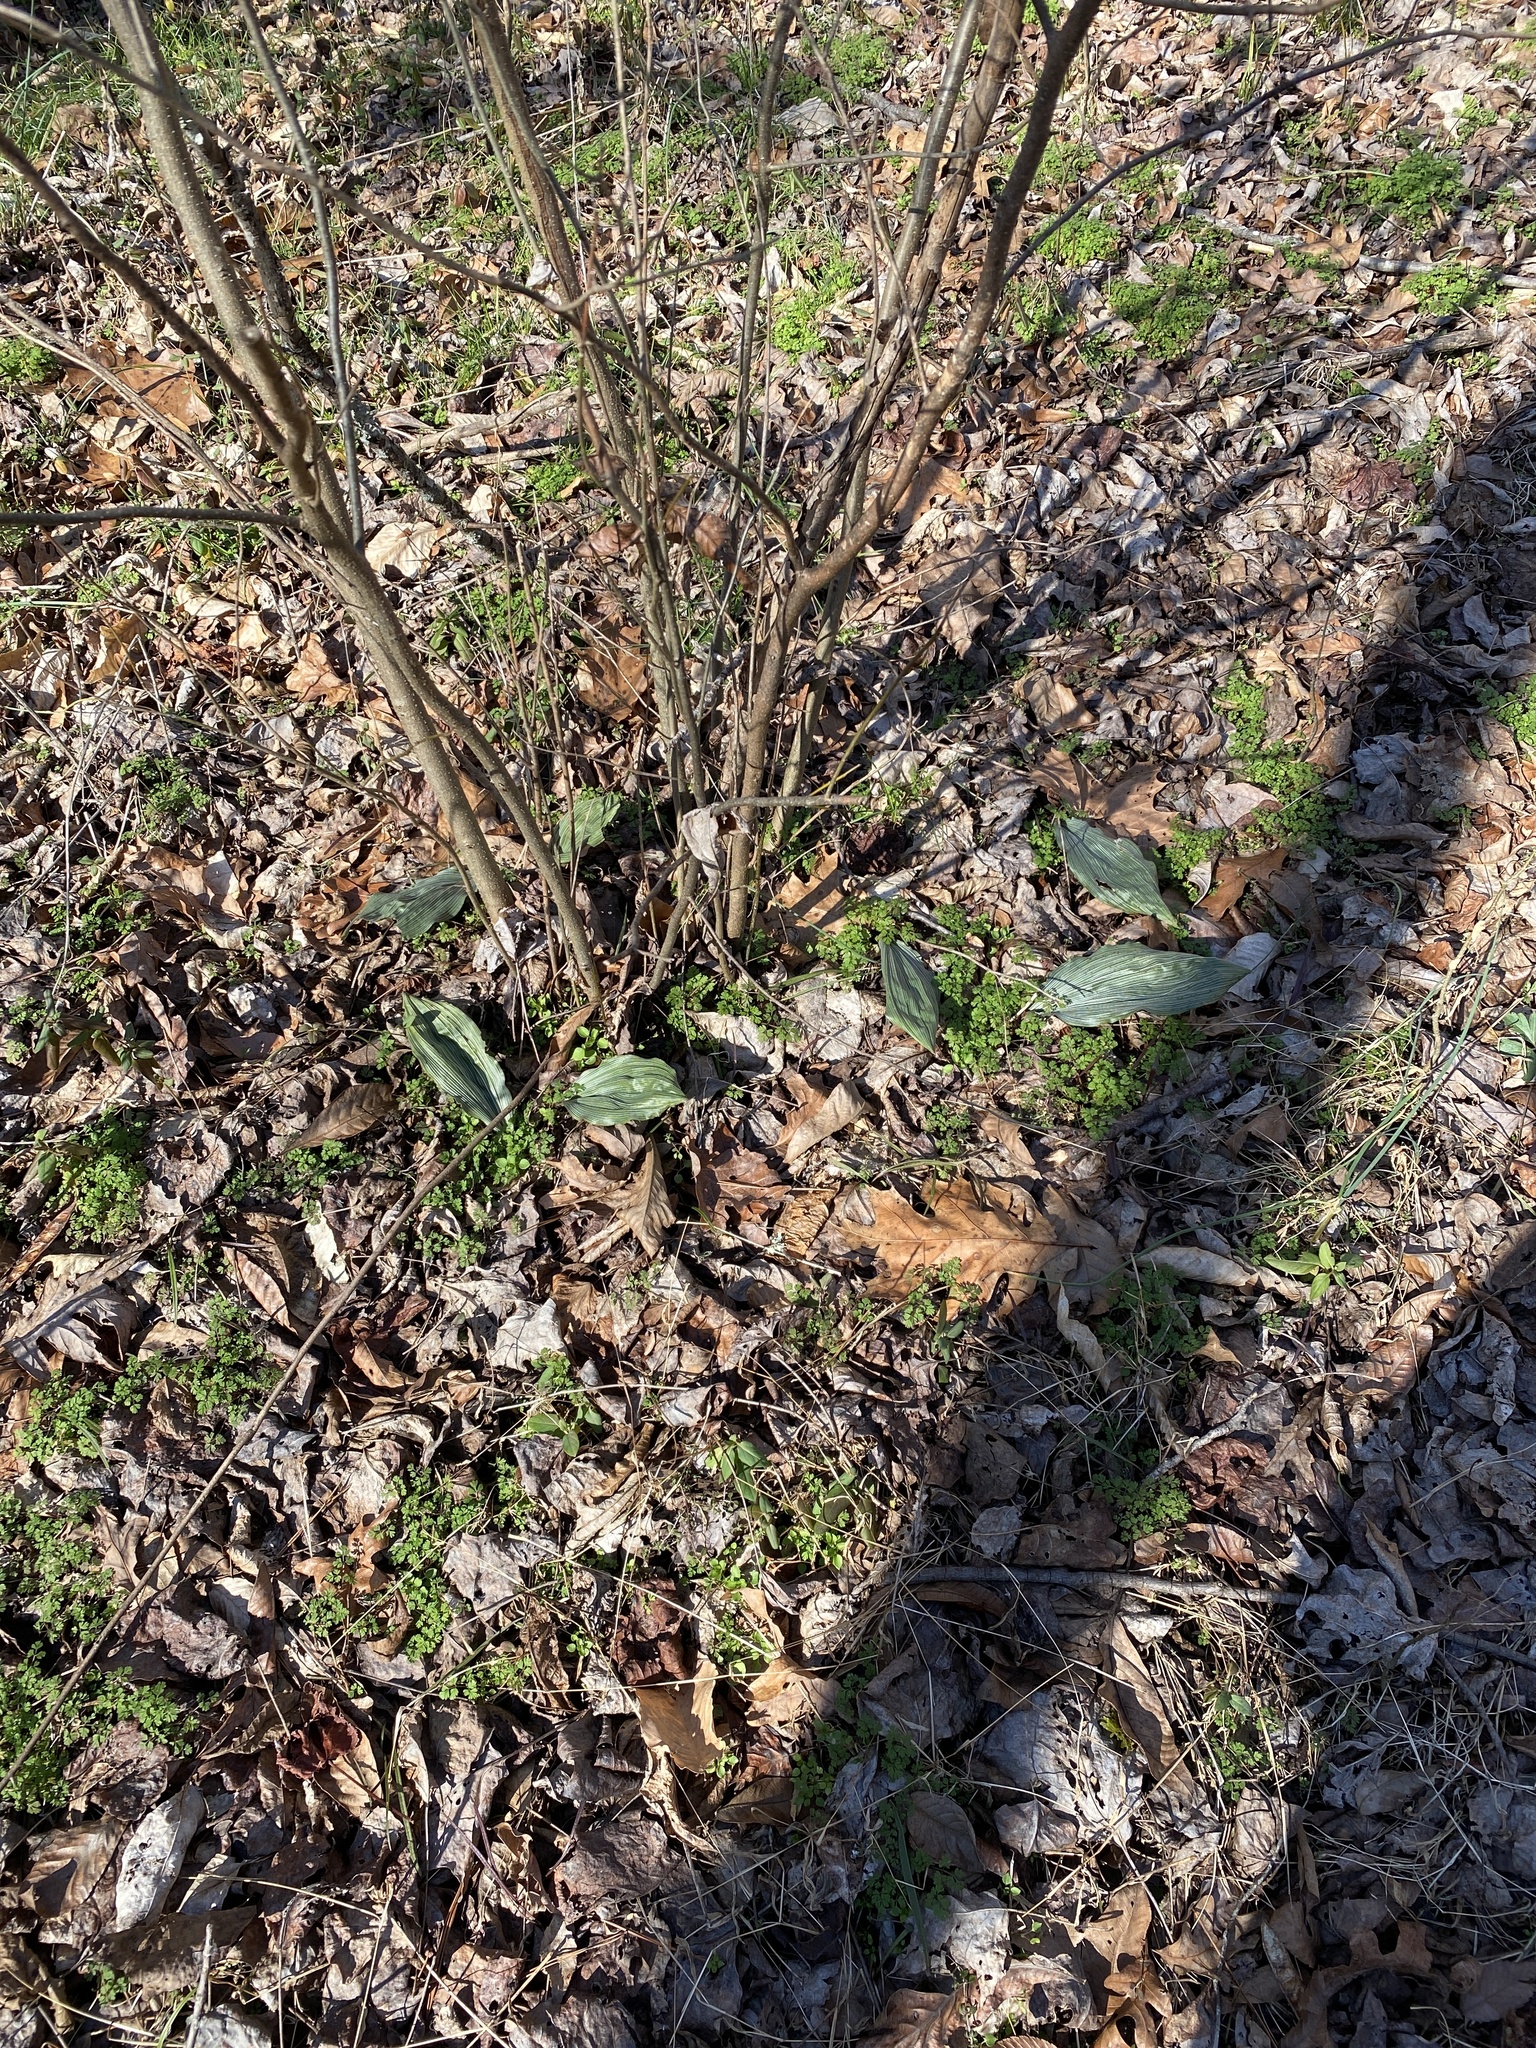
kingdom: Plantae
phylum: Tracheophyta
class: Liliopsida
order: Asparagales
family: Orchidaceae
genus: Aplectrum
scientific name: Aplectrum hyemale
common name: Adam-and-eve
